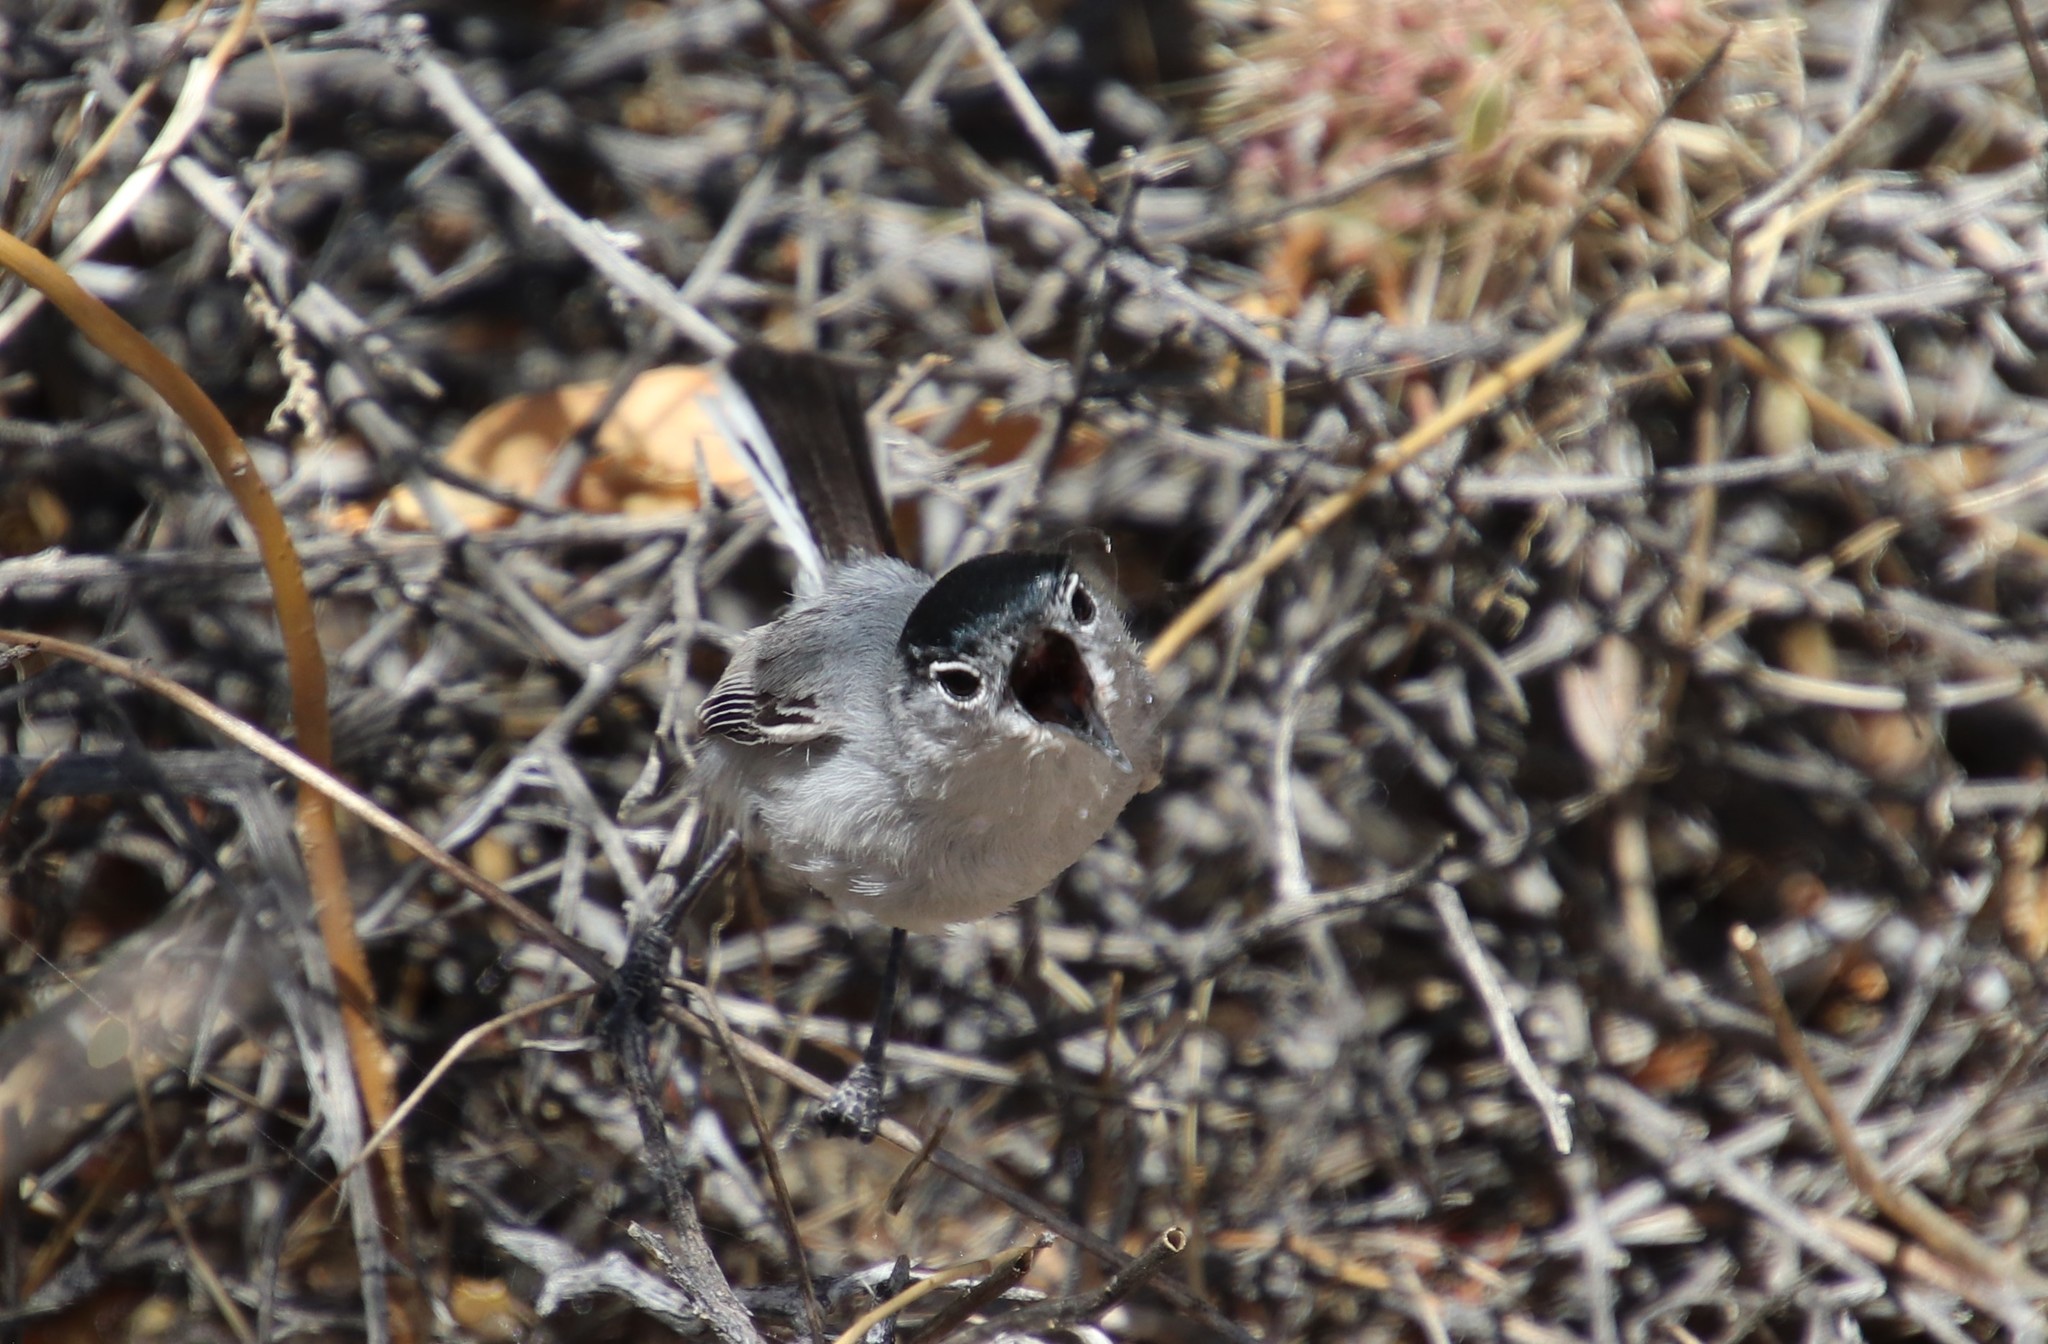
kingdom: Animalia
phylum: Chordata
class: Aves
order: Passeriformes
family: Polioptilidae
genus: Polioptila
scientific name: Polioptila melanura
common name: Black-tailed gnatcatcher
